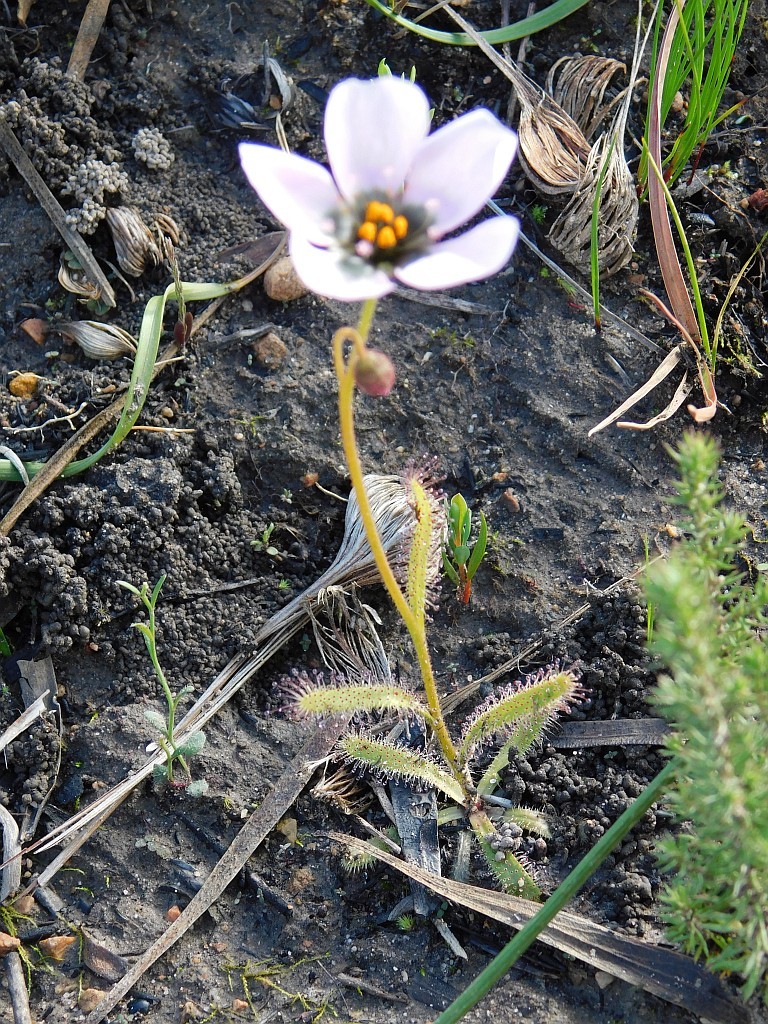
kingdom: Plantae
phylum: Tracheophyta
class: Magnoliopsida
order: Caryophyllales
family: Droseraceae
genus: Drosera
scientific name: Drosera cistiflora
